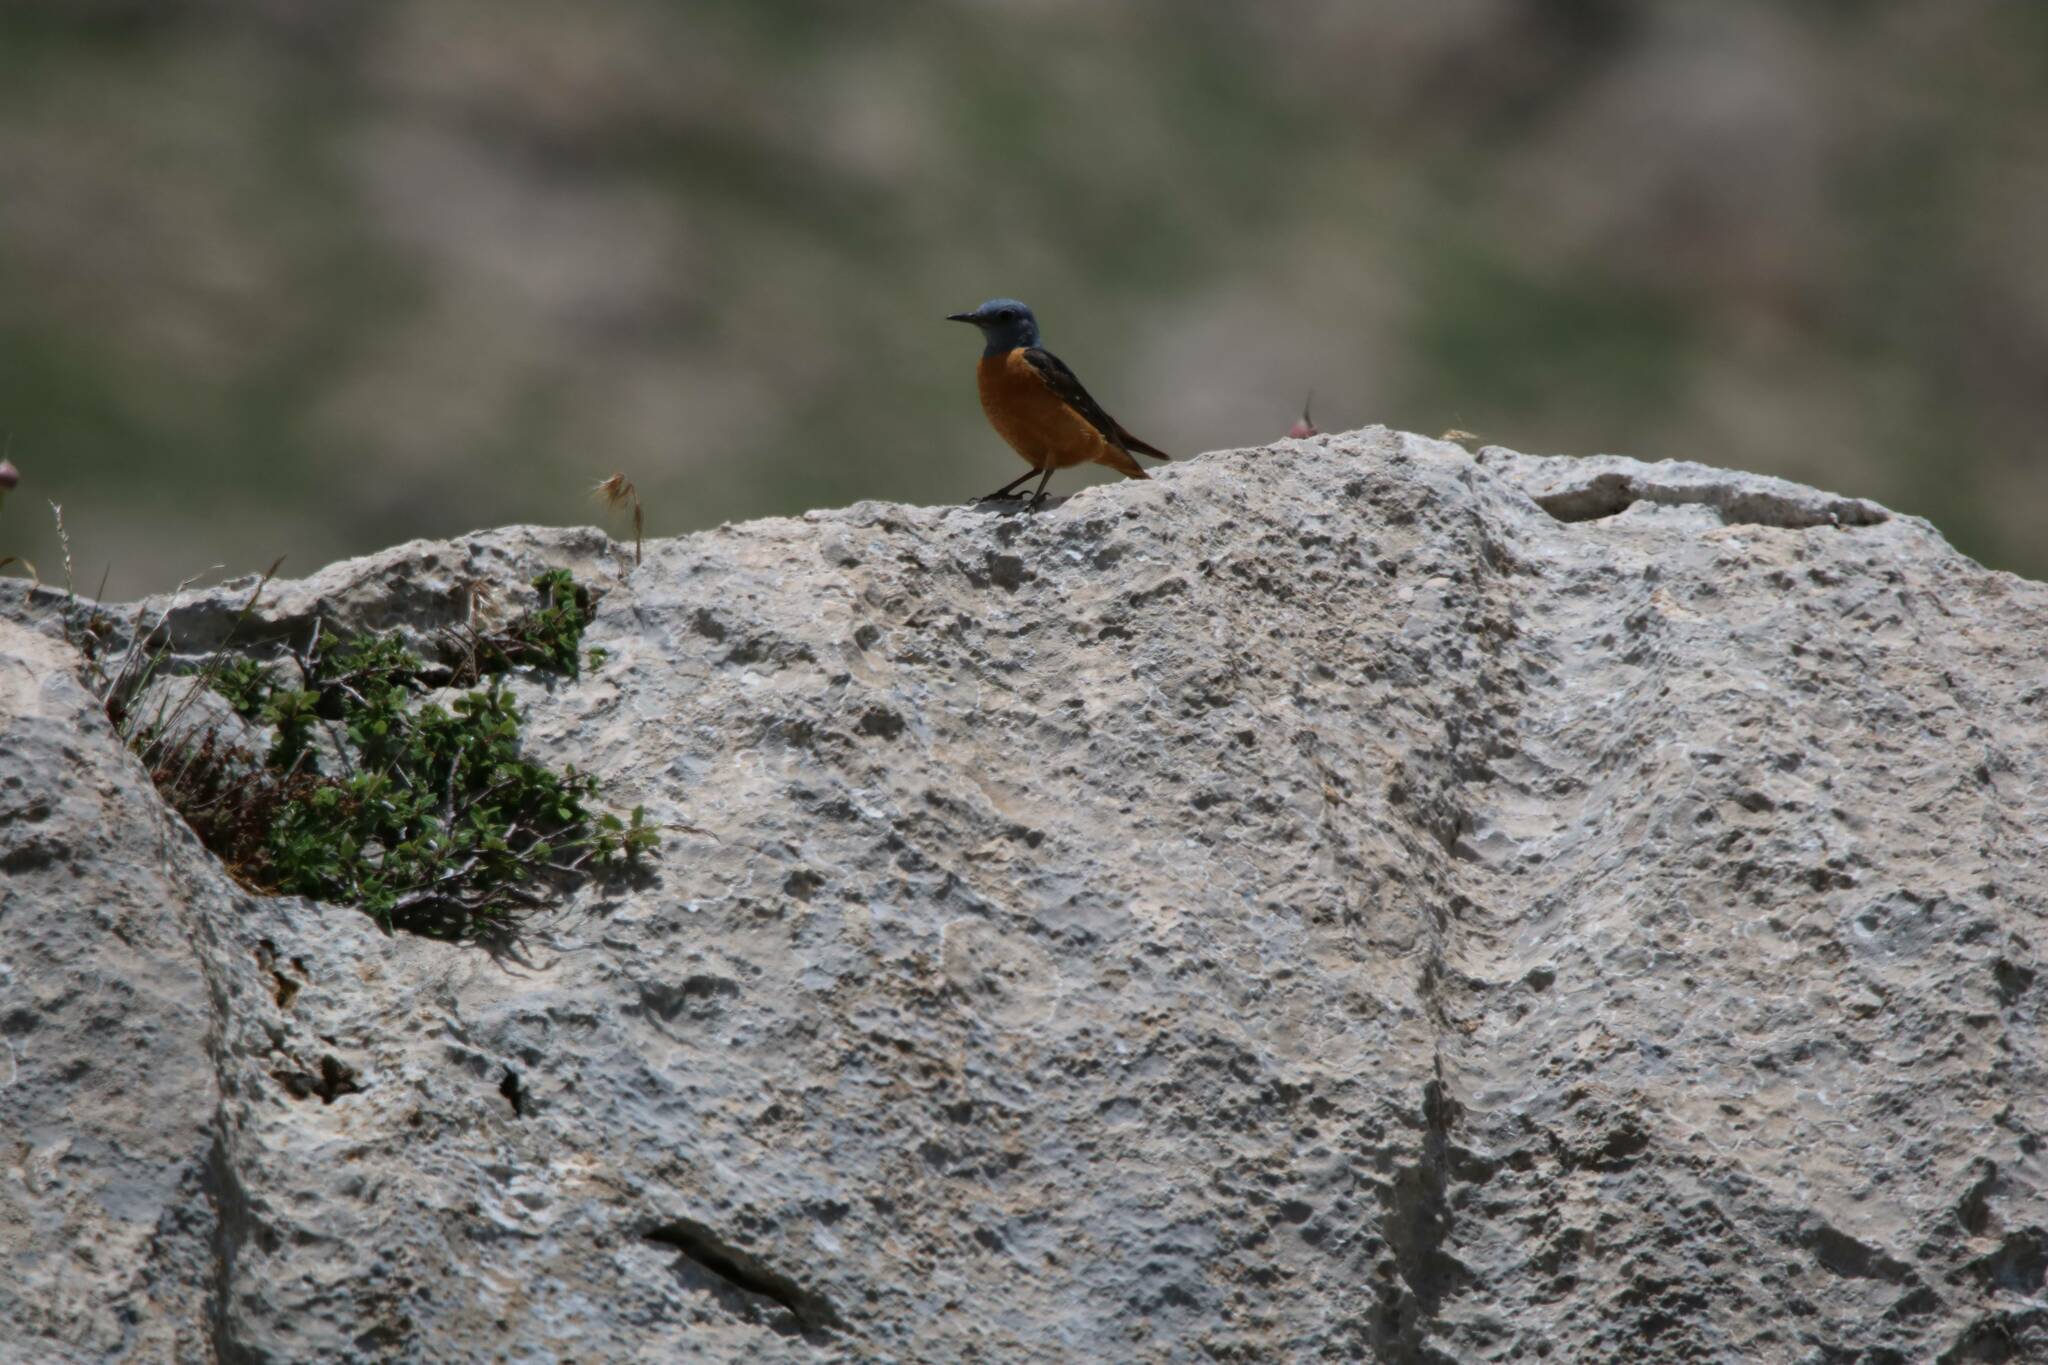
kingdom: Animalia
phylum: Chordata
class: Aves
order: Passeriformes
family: Muscicapidae
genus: Monticola
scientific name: Monticola saxatilis
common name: Rufous-tailed rock thrush
